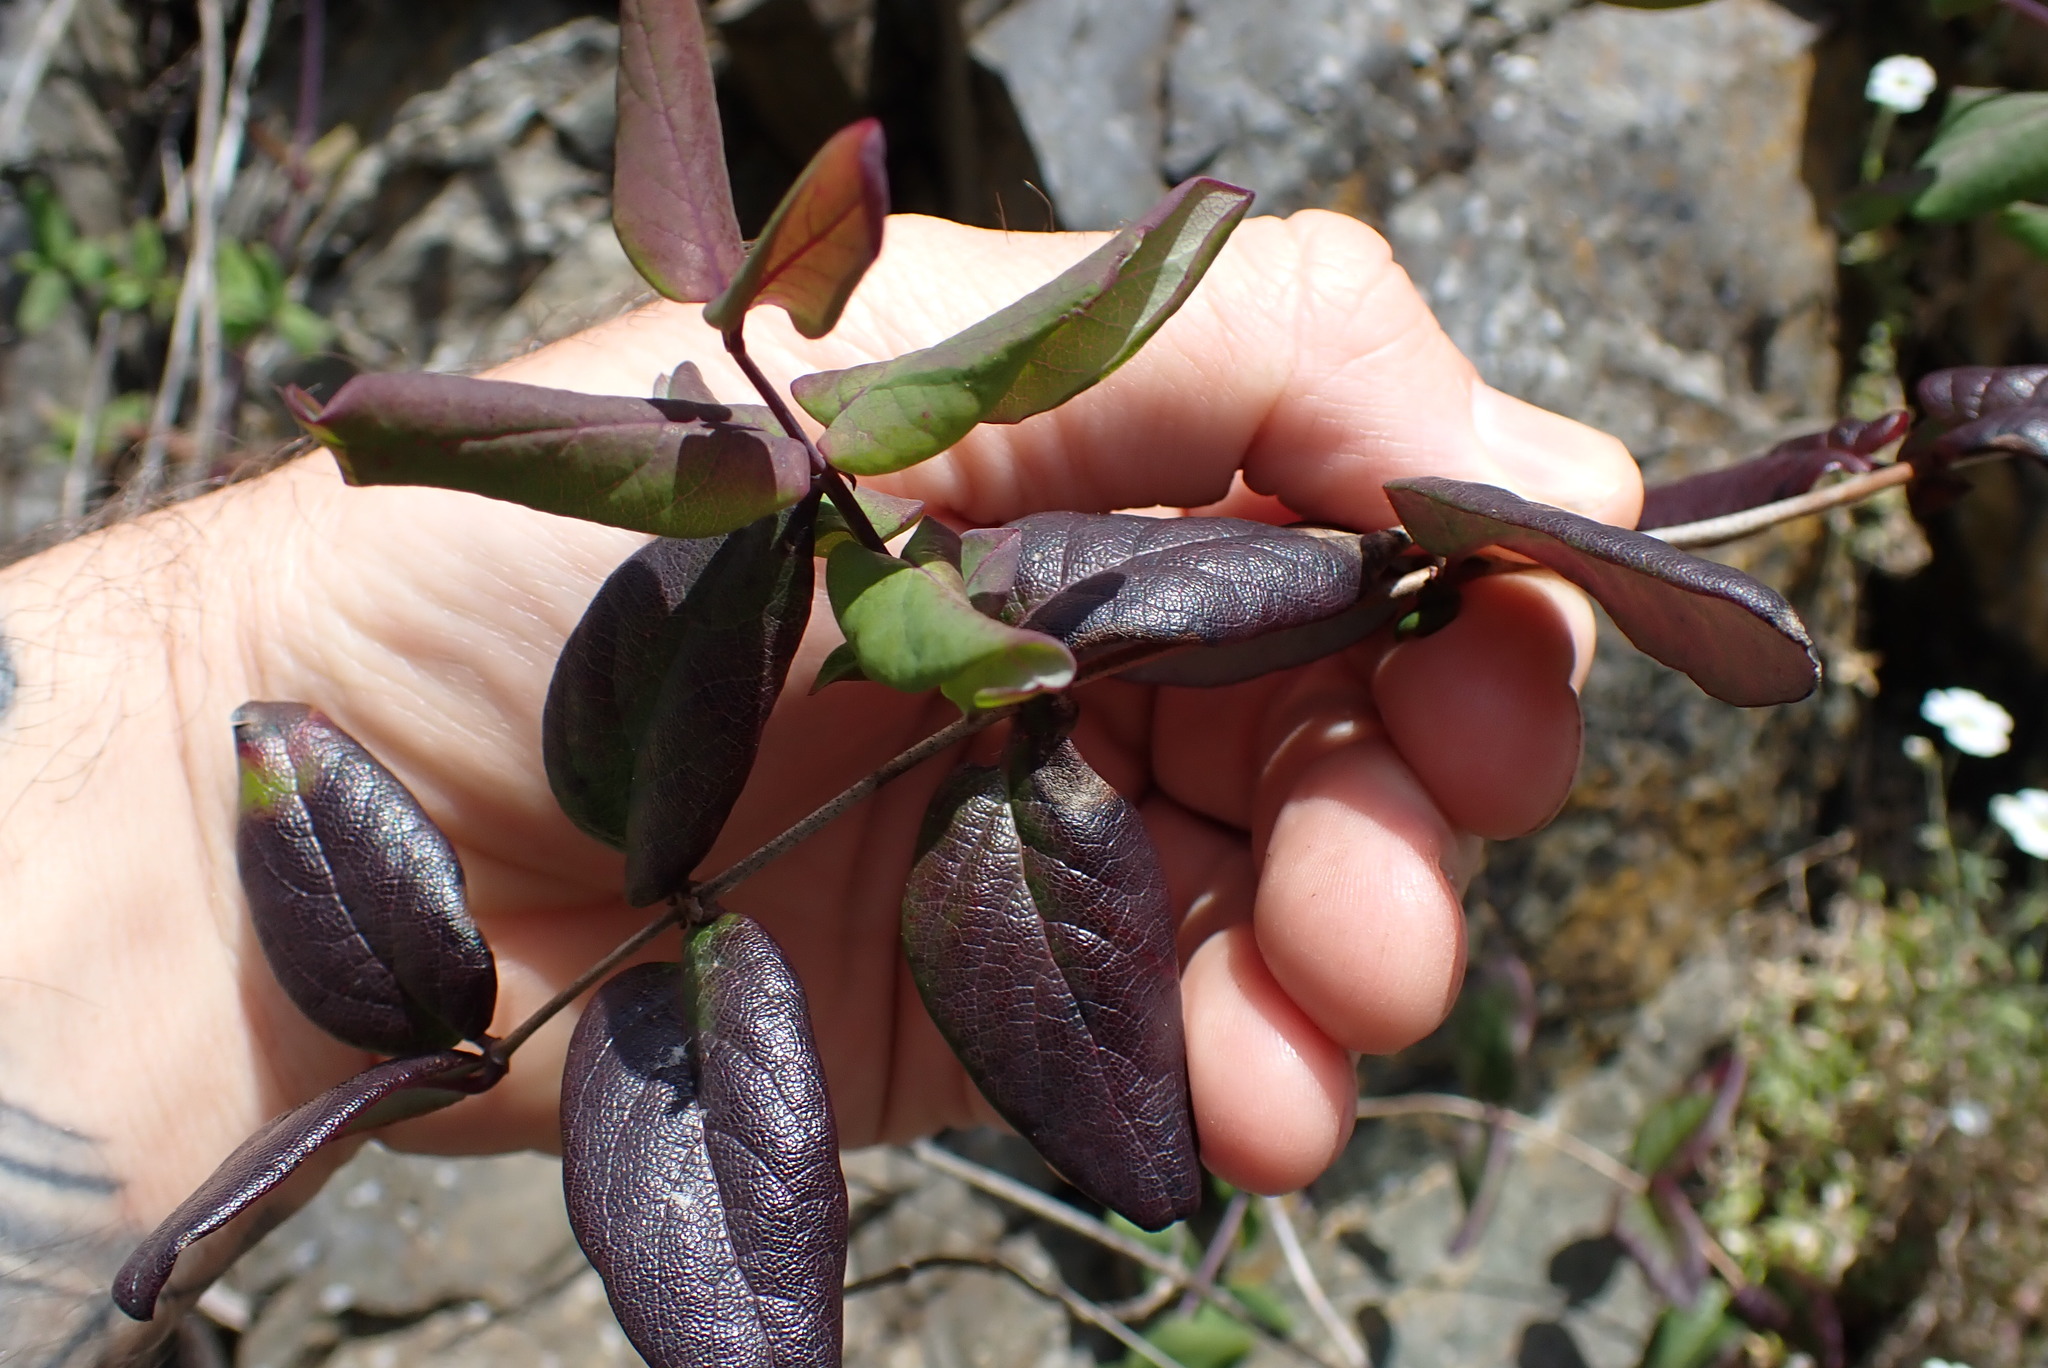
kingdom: Plantae
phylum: Tracheophyta
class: Magnoliopsida
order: Dipsacales
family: Caprifoliaceae
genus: Lonicera
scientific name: Lonicera hispidula
